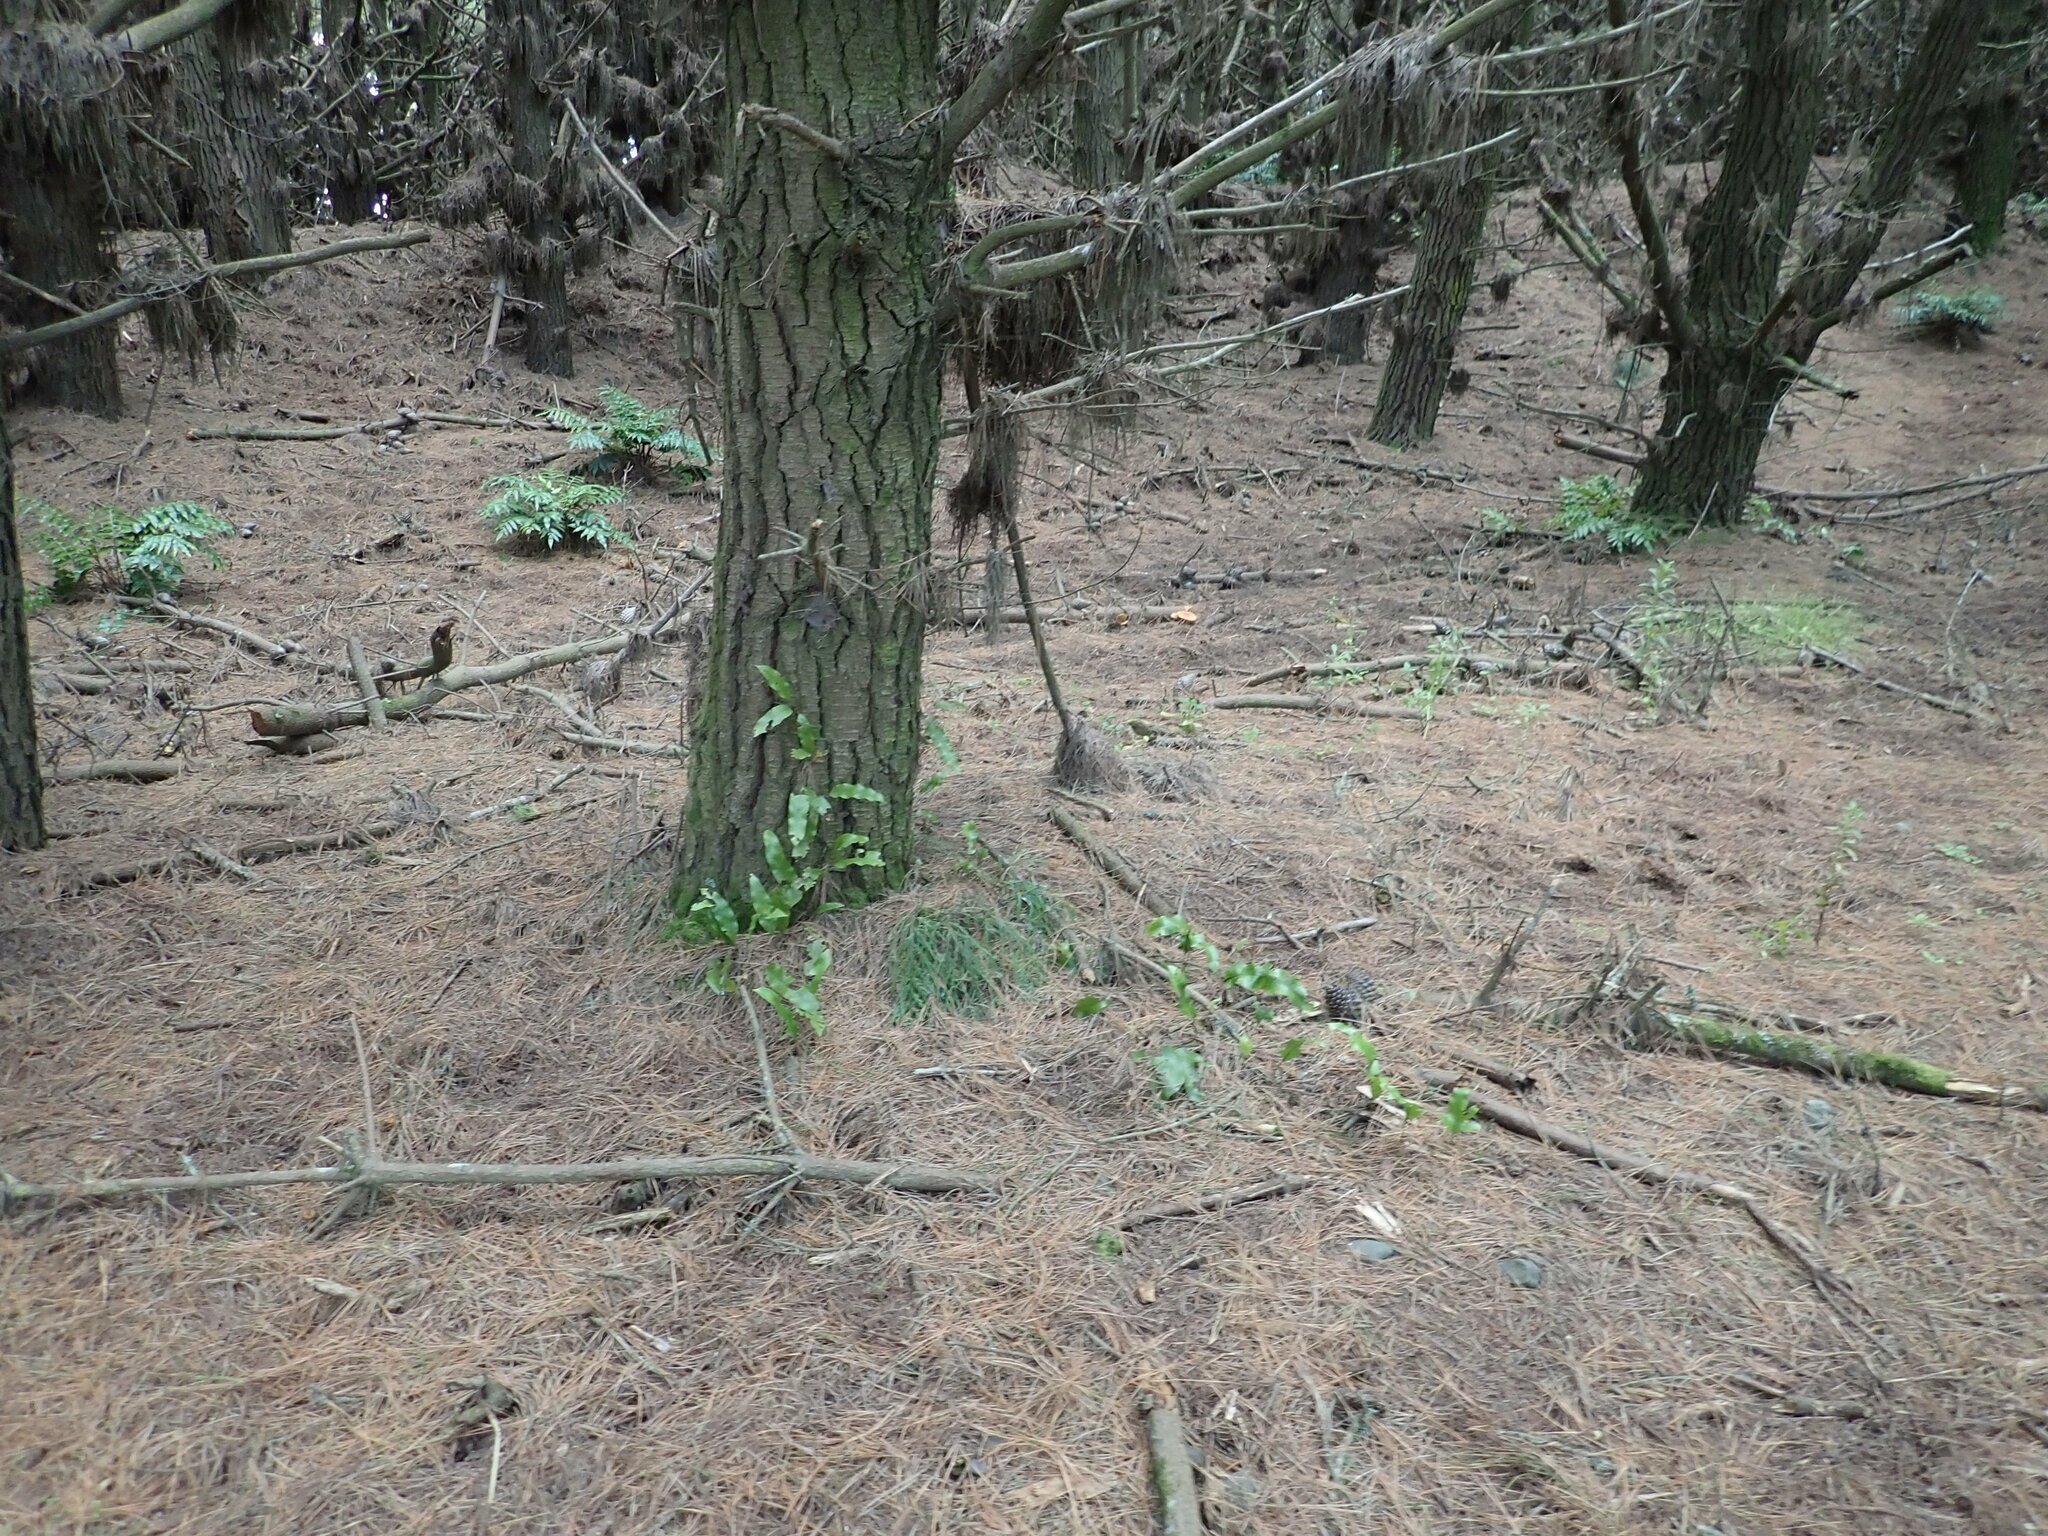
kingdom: Plantae
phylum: Tracheophyta
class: Polypodiopsida
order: Polypodiales
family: Aspleniaceae
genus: Asplenium
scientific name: Asplenium flaccidum
